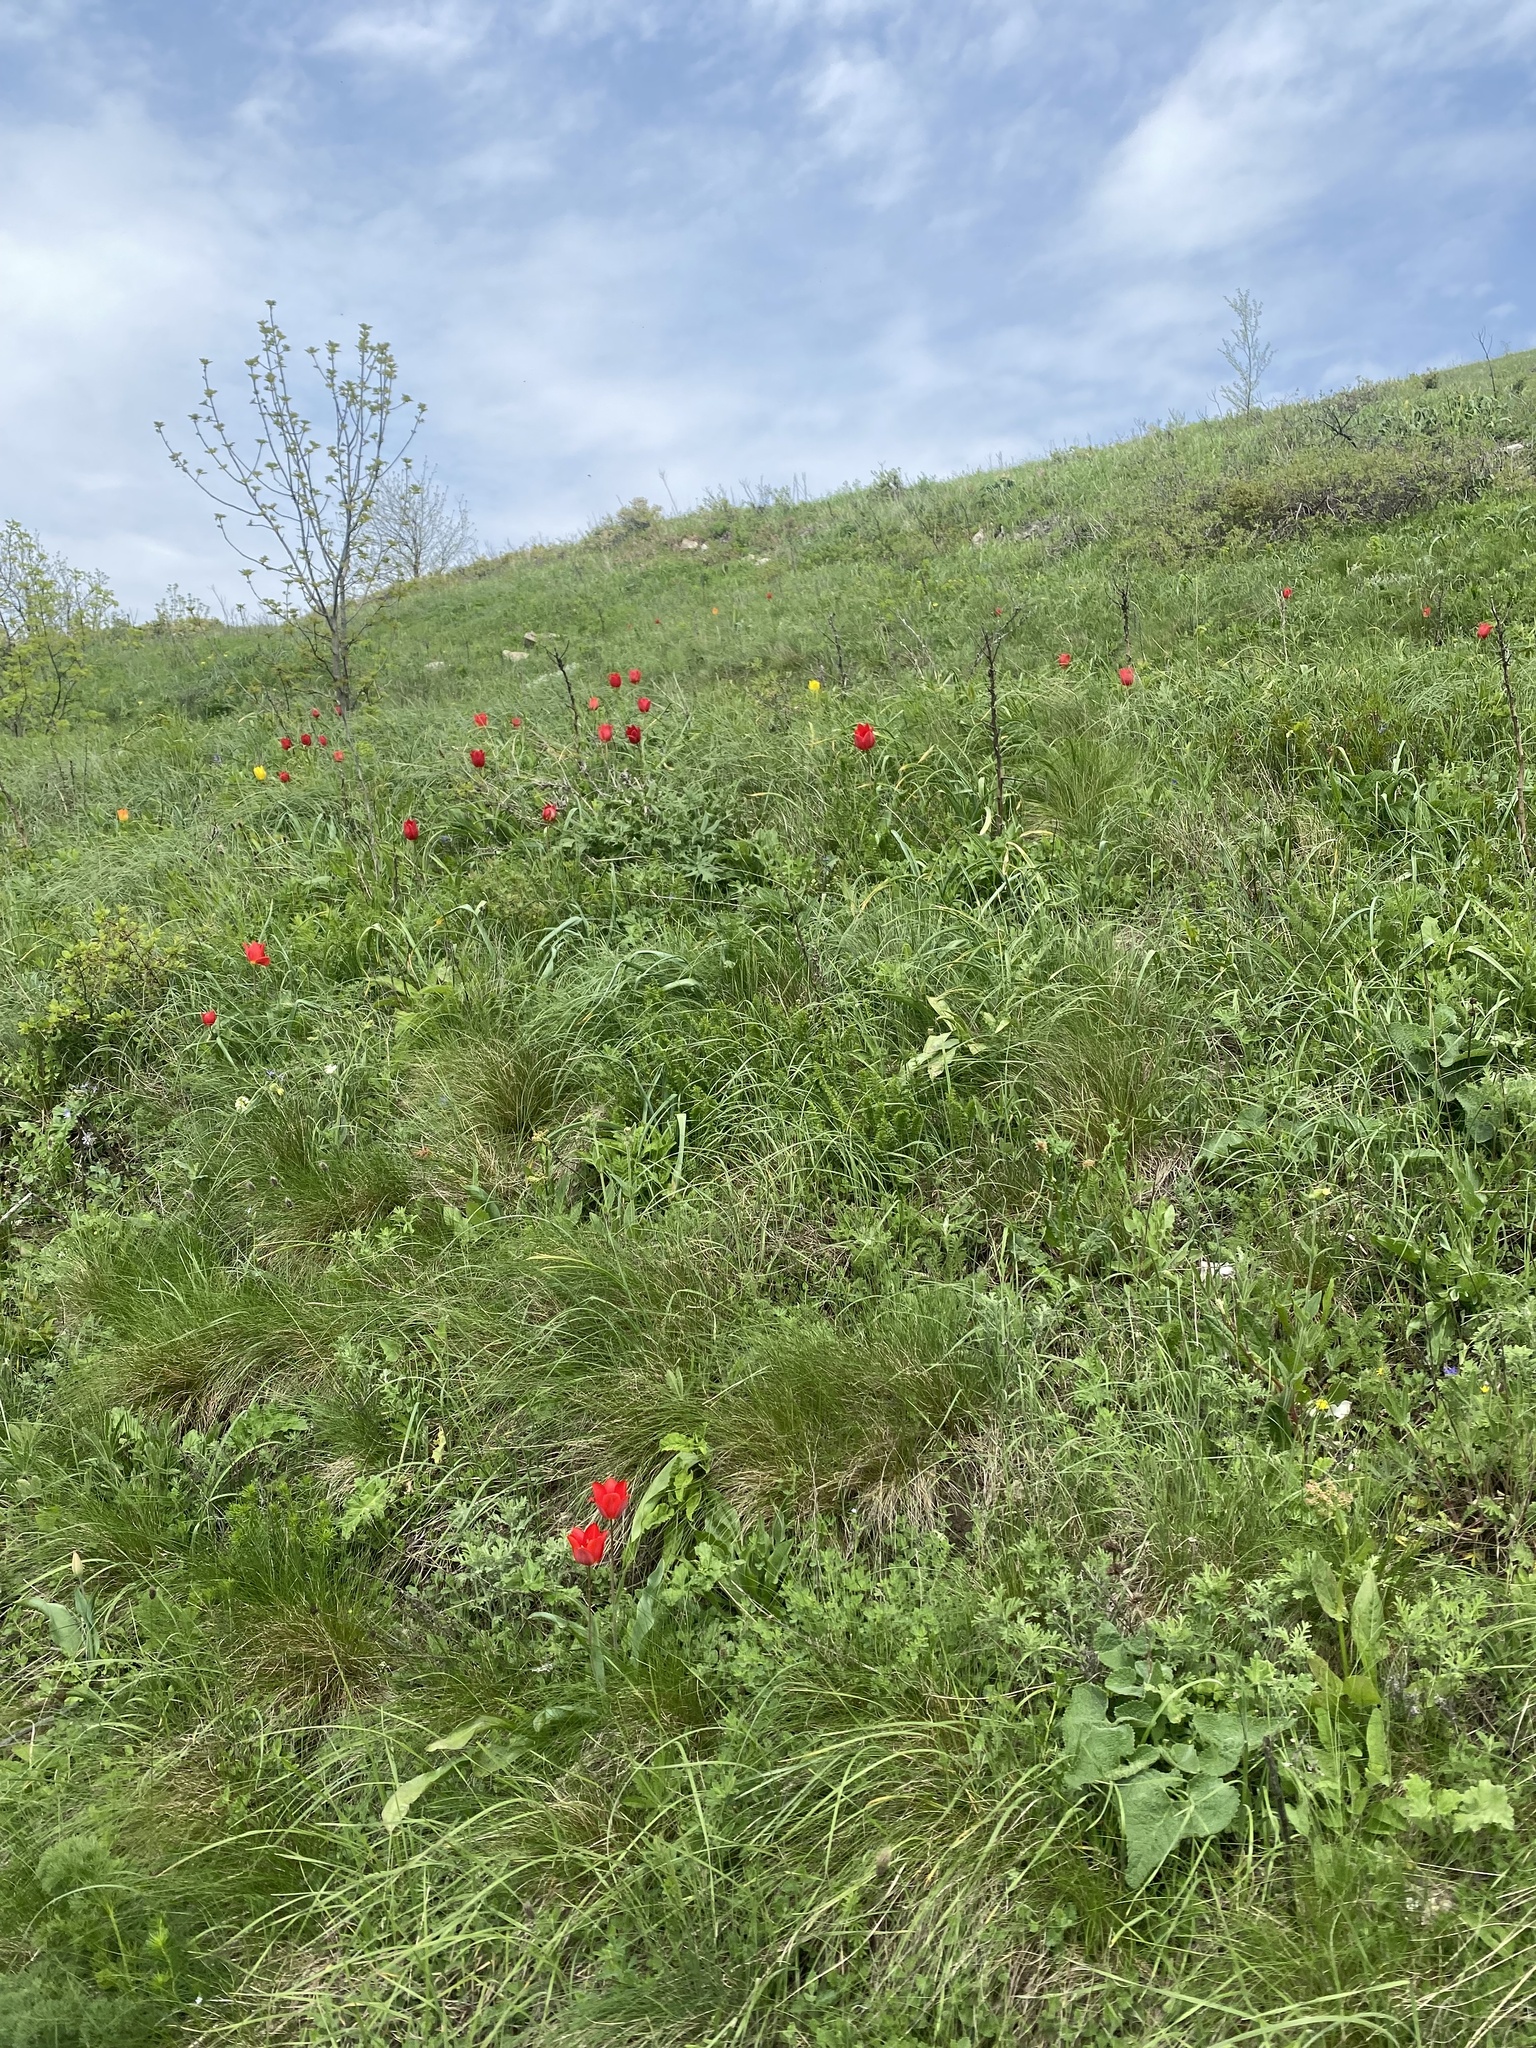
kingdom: Plantae
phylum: Tracheophyta
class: Liliopsida
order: Liliales
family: Liliaceae
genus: Tulipa
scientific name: Tulipa suaveolens
